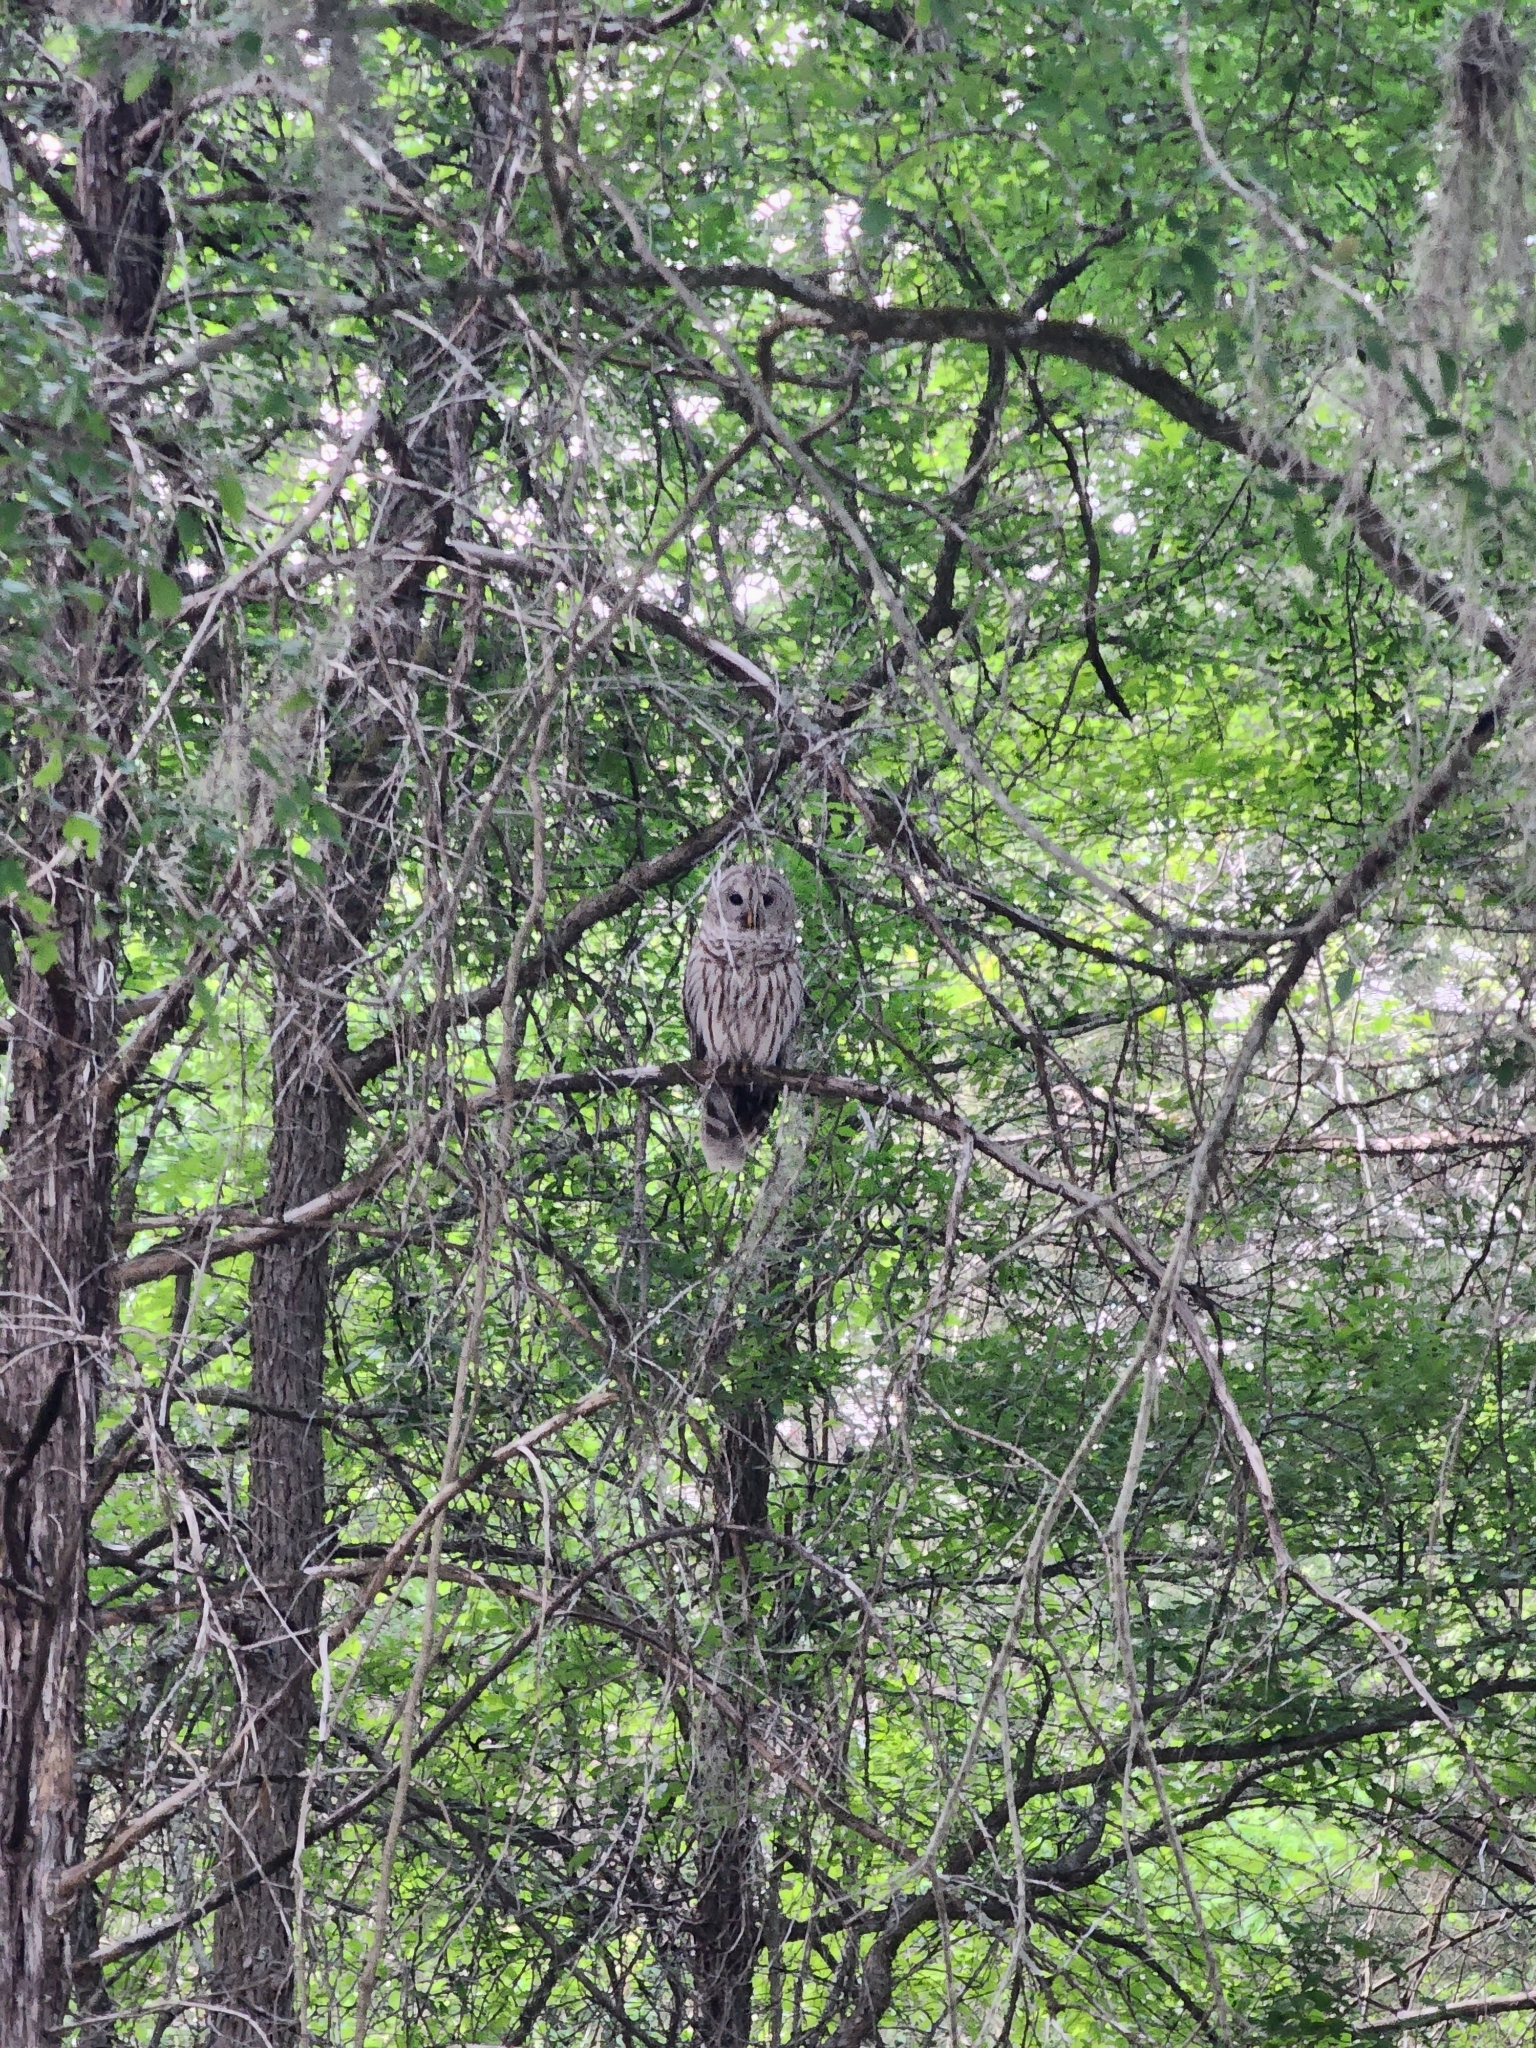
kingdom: Animalia
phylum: Chordata
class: Aves
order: Strigiformes
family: Strigidae
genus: Strix
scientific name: Strix varia
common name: Barred owl
